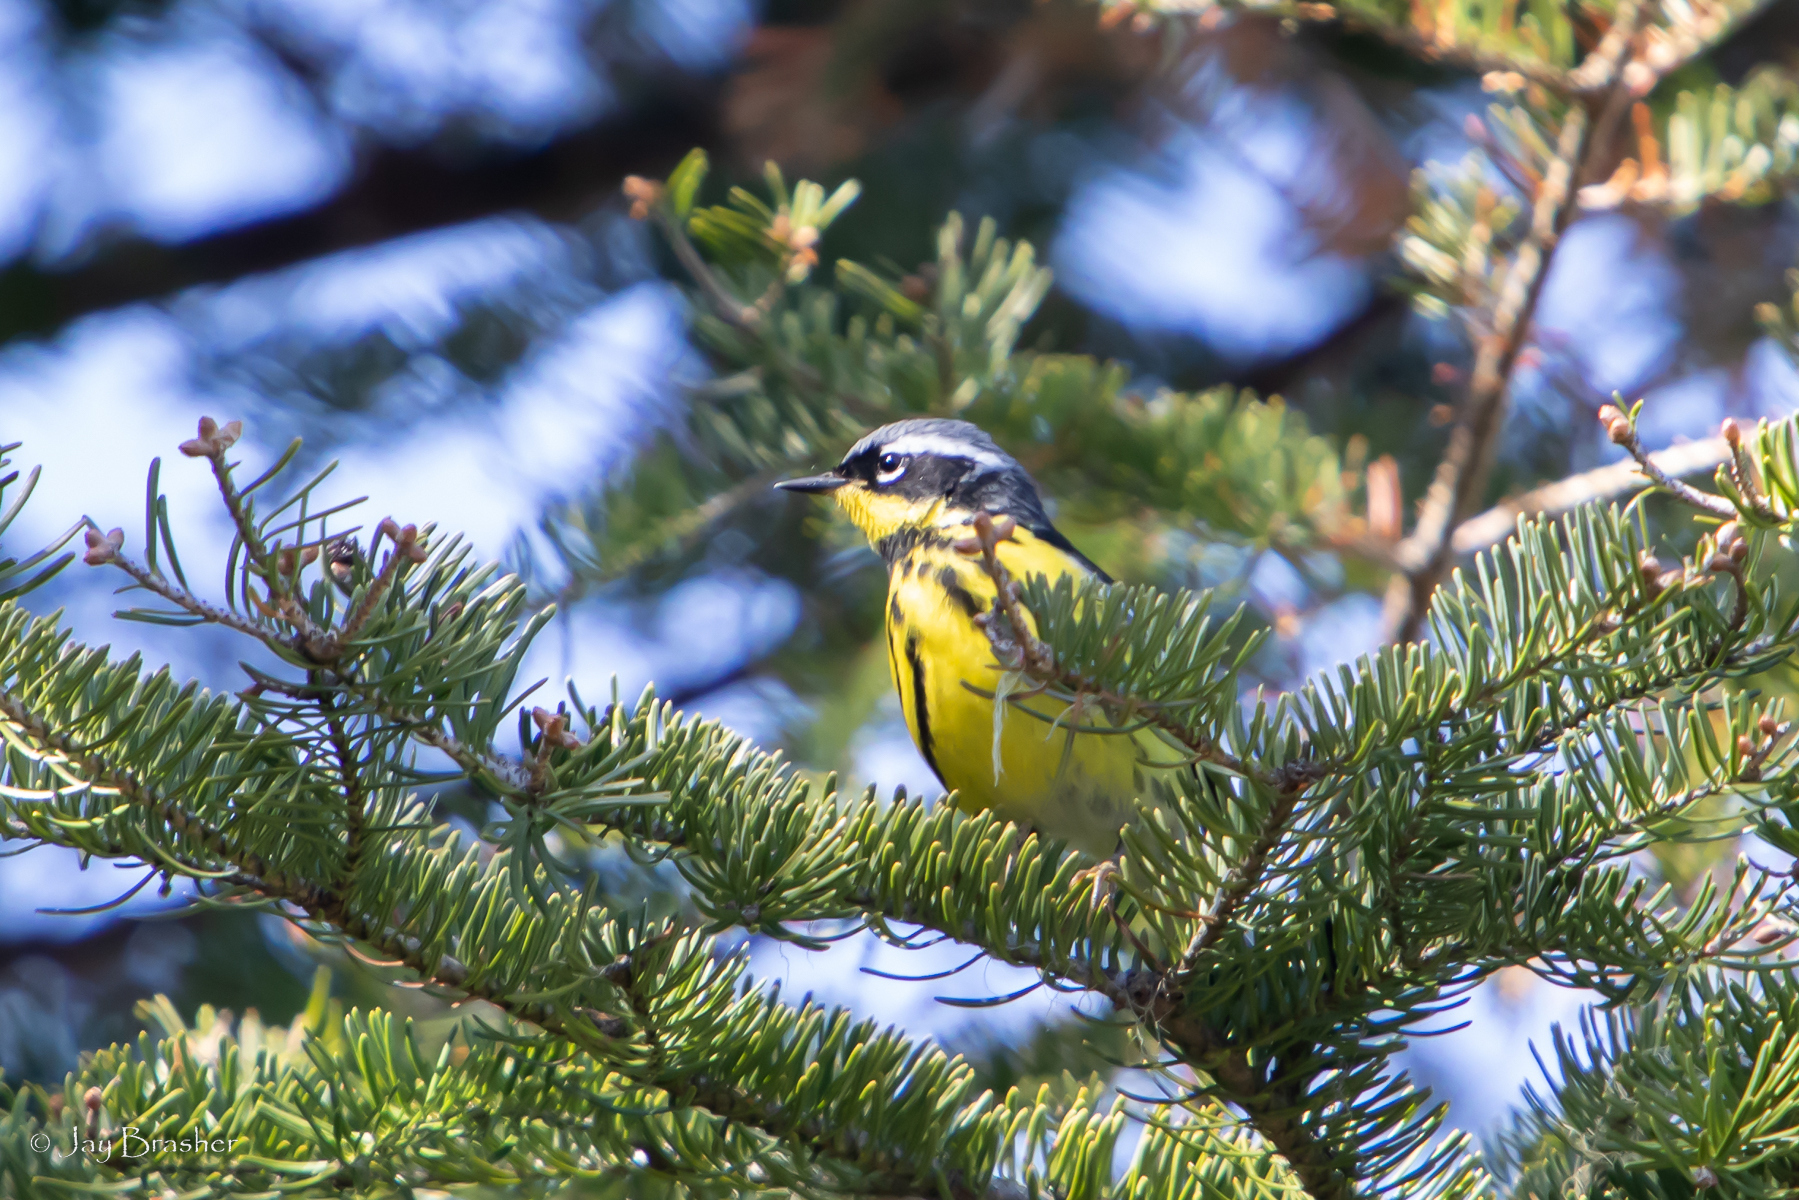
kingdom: Animalia
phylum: Chordata
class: Aves
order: Passeriformes
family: Parulidae
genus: Setophaga
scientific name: Setophaga magnolia
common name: Magnolia warbler
